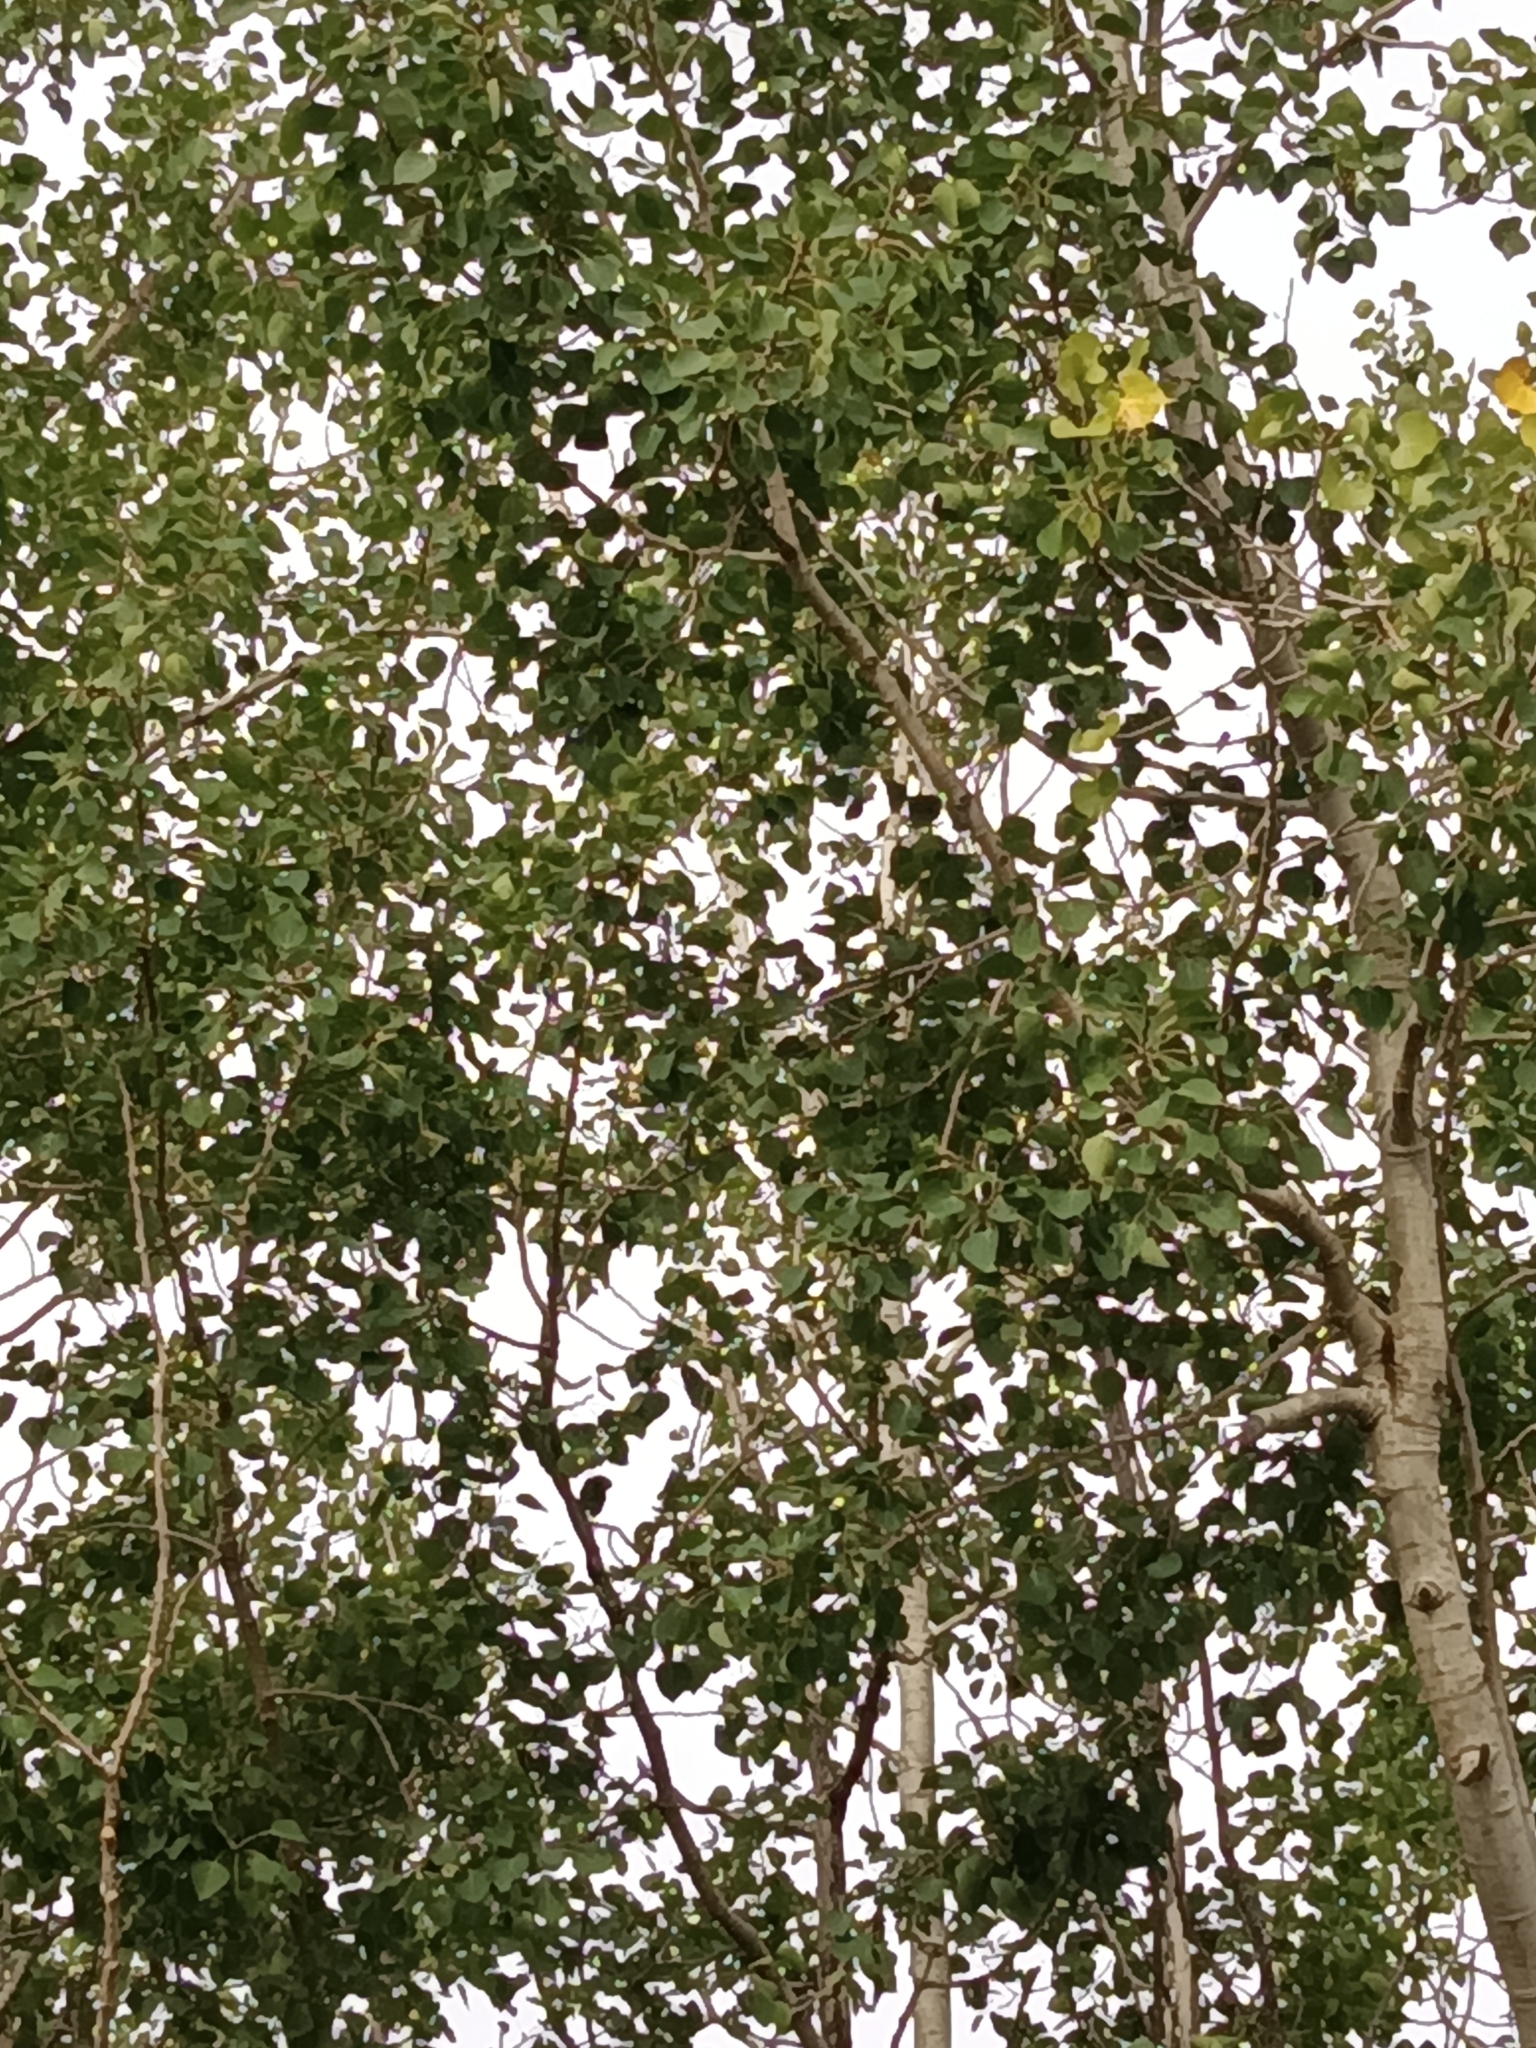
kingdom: Plantae
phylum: Tracheophyta
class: Magnoliopsida
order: Malpighiales
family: Salicaceae
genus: Populus
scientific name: Populus tremuloides
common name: Quaking aspen
